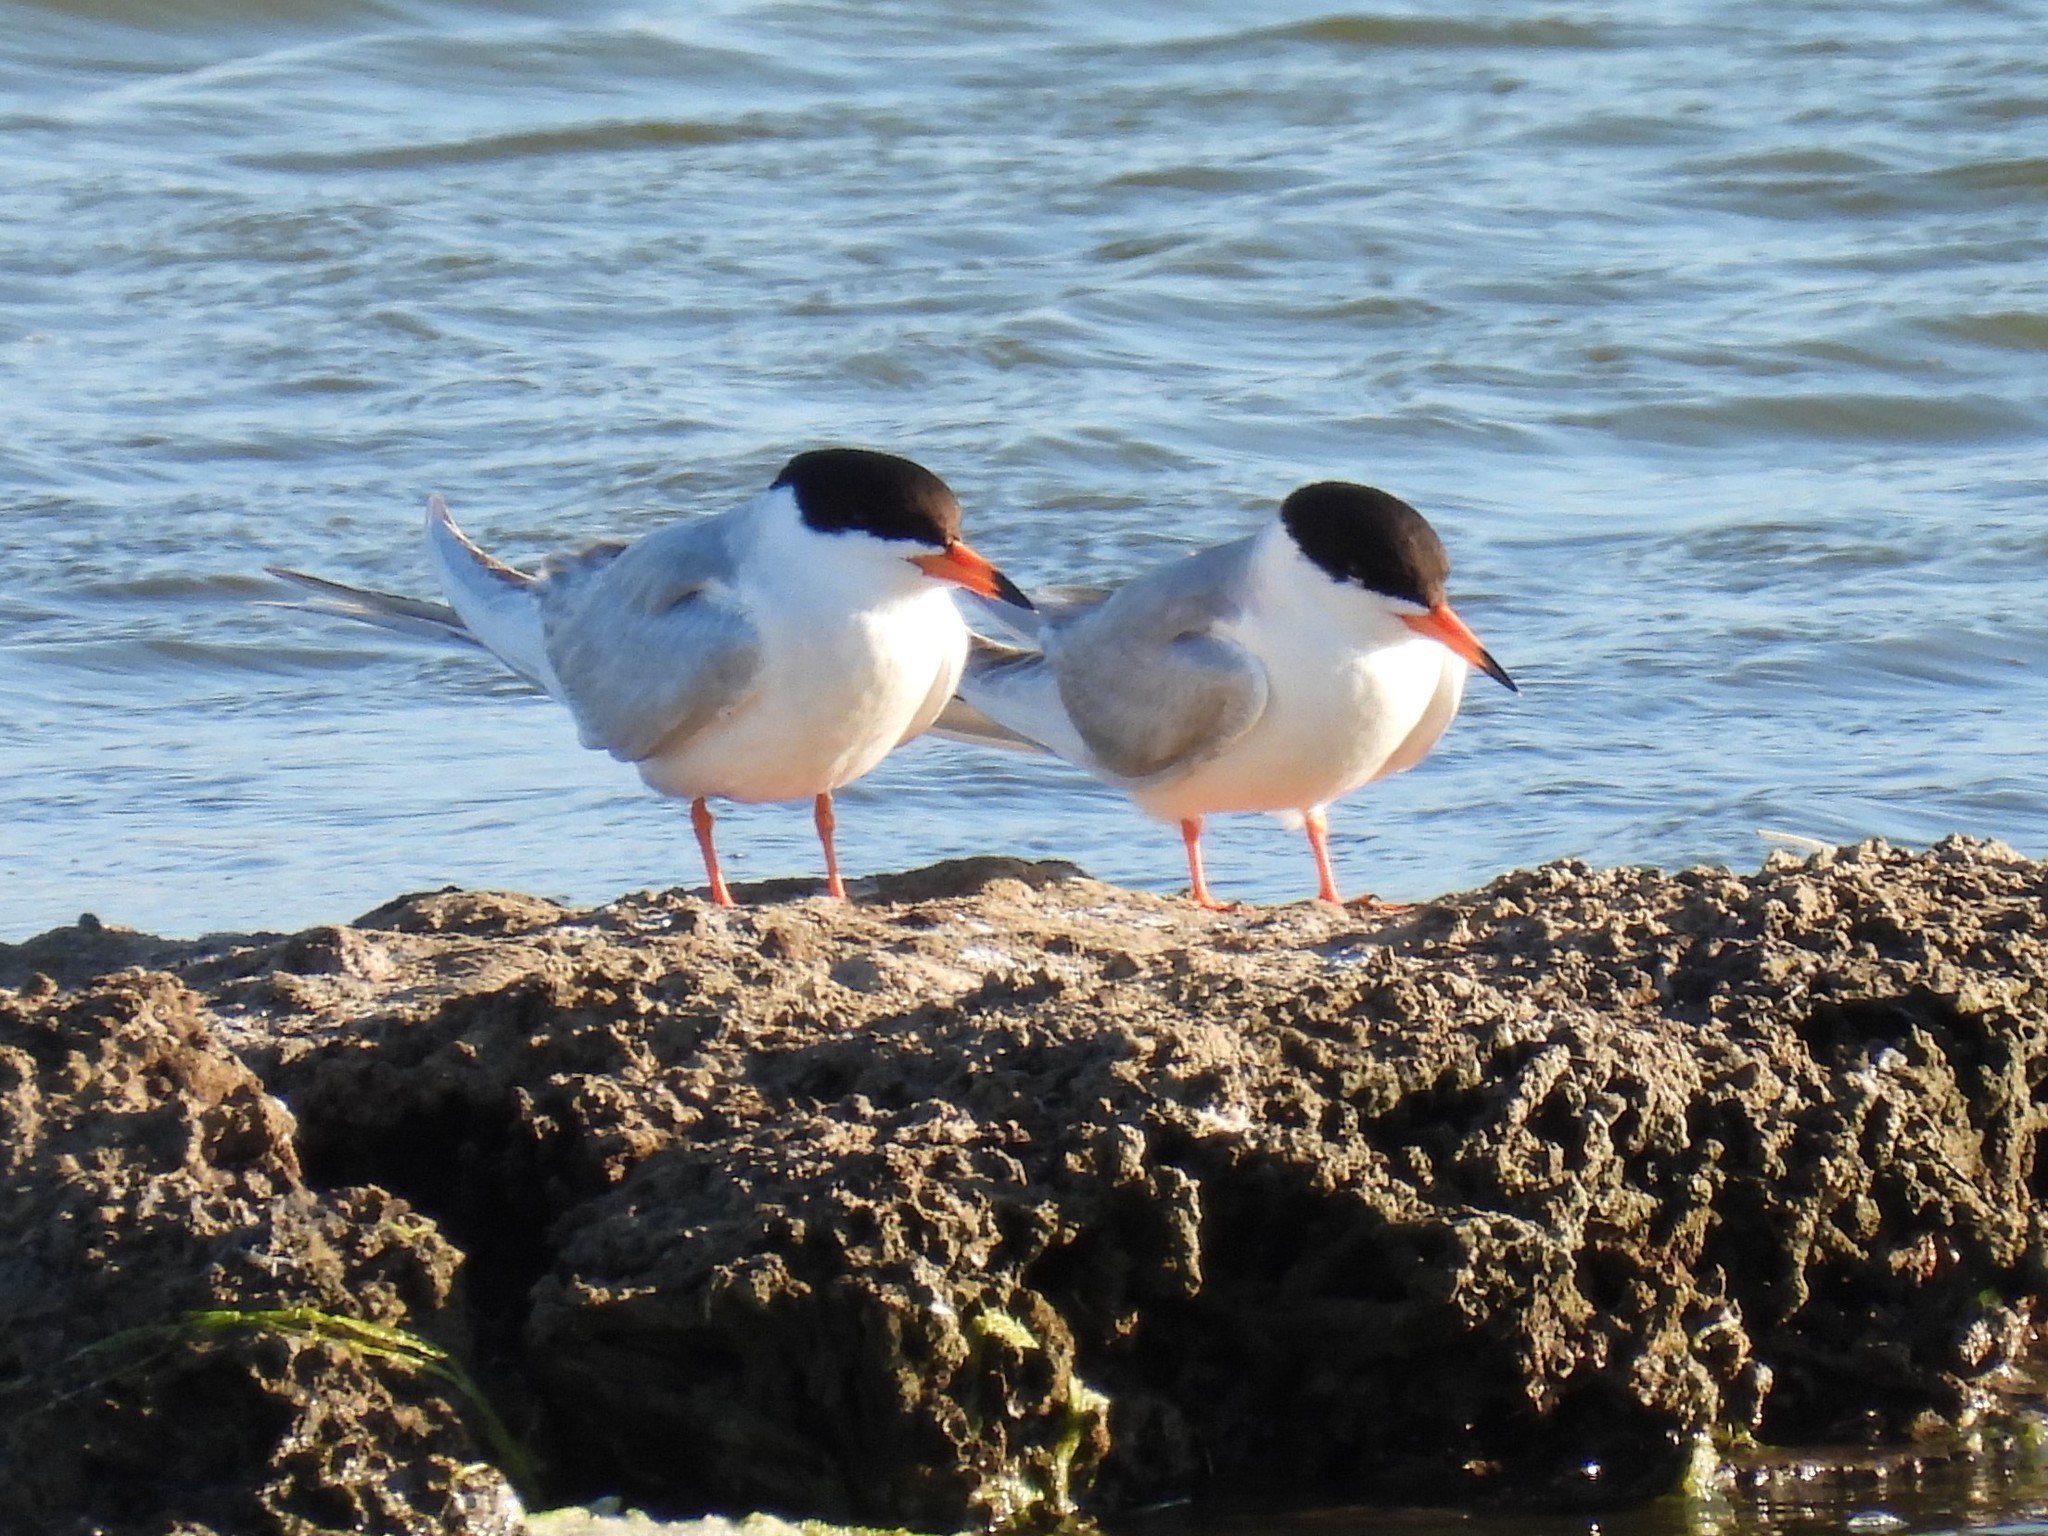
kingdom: Animalia
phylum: Chordata
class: Aves
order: Charadriiformes
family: Laridae
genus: Sterna
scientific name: Sterna forsteri
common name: Forster's tern
